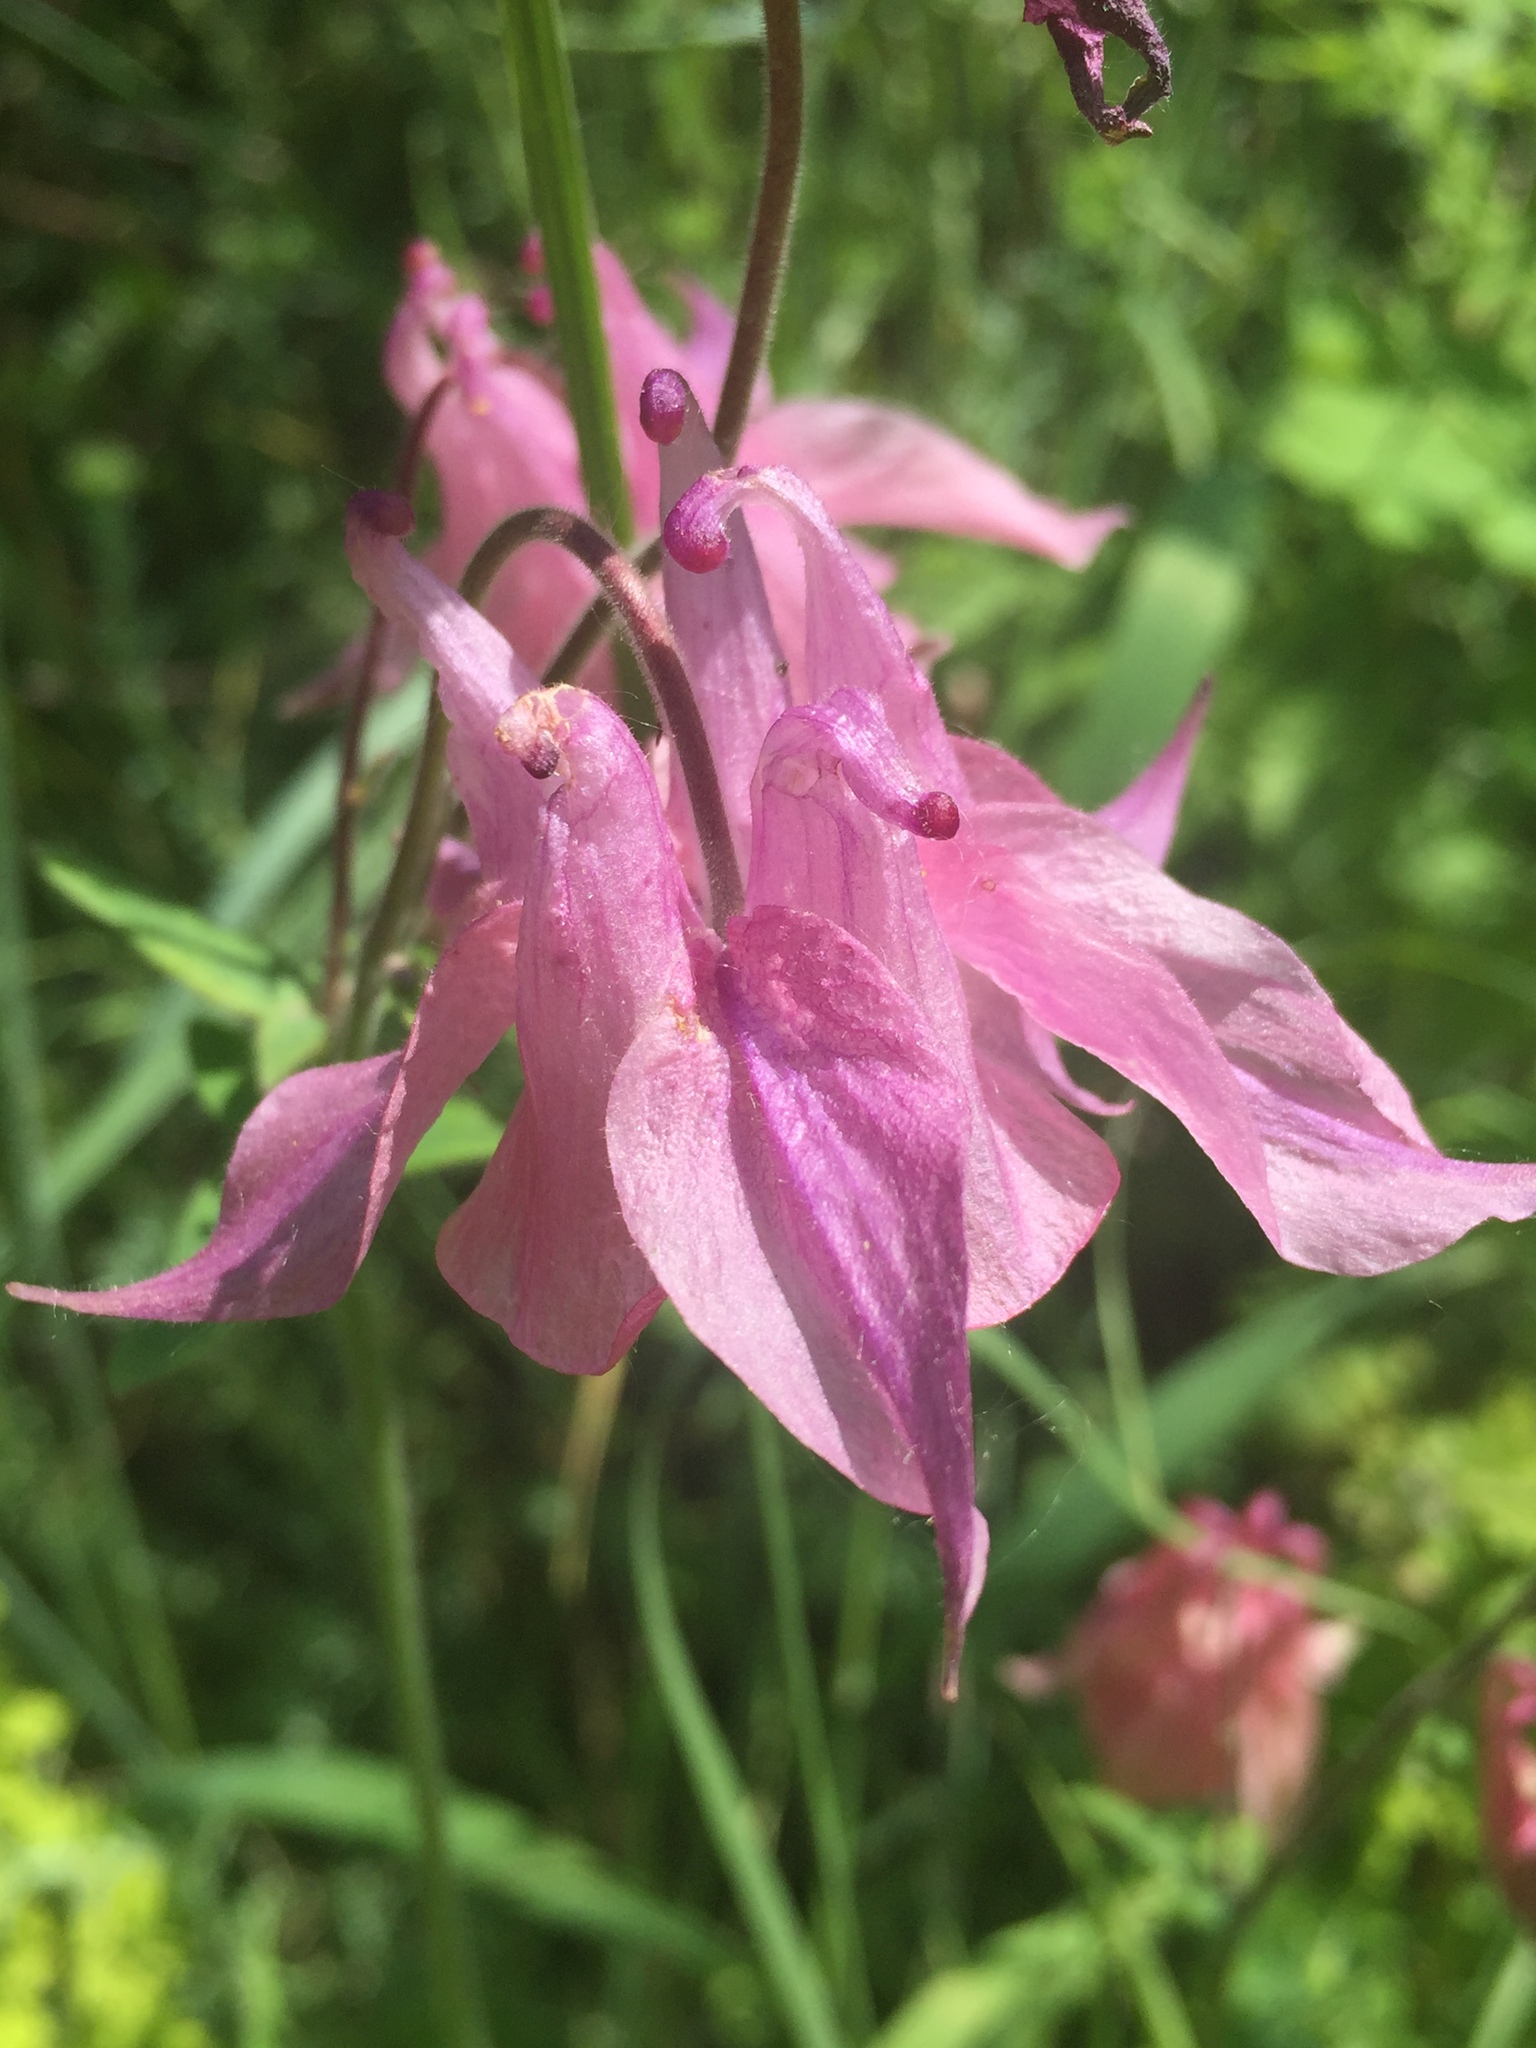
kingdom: Plantae
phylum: Tracheophyta
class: Magnoliopsida
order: Ranunculales
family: Ranunculaceae
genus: Aquilegia
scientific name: Aquilegia vulgaris
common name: Columbine
